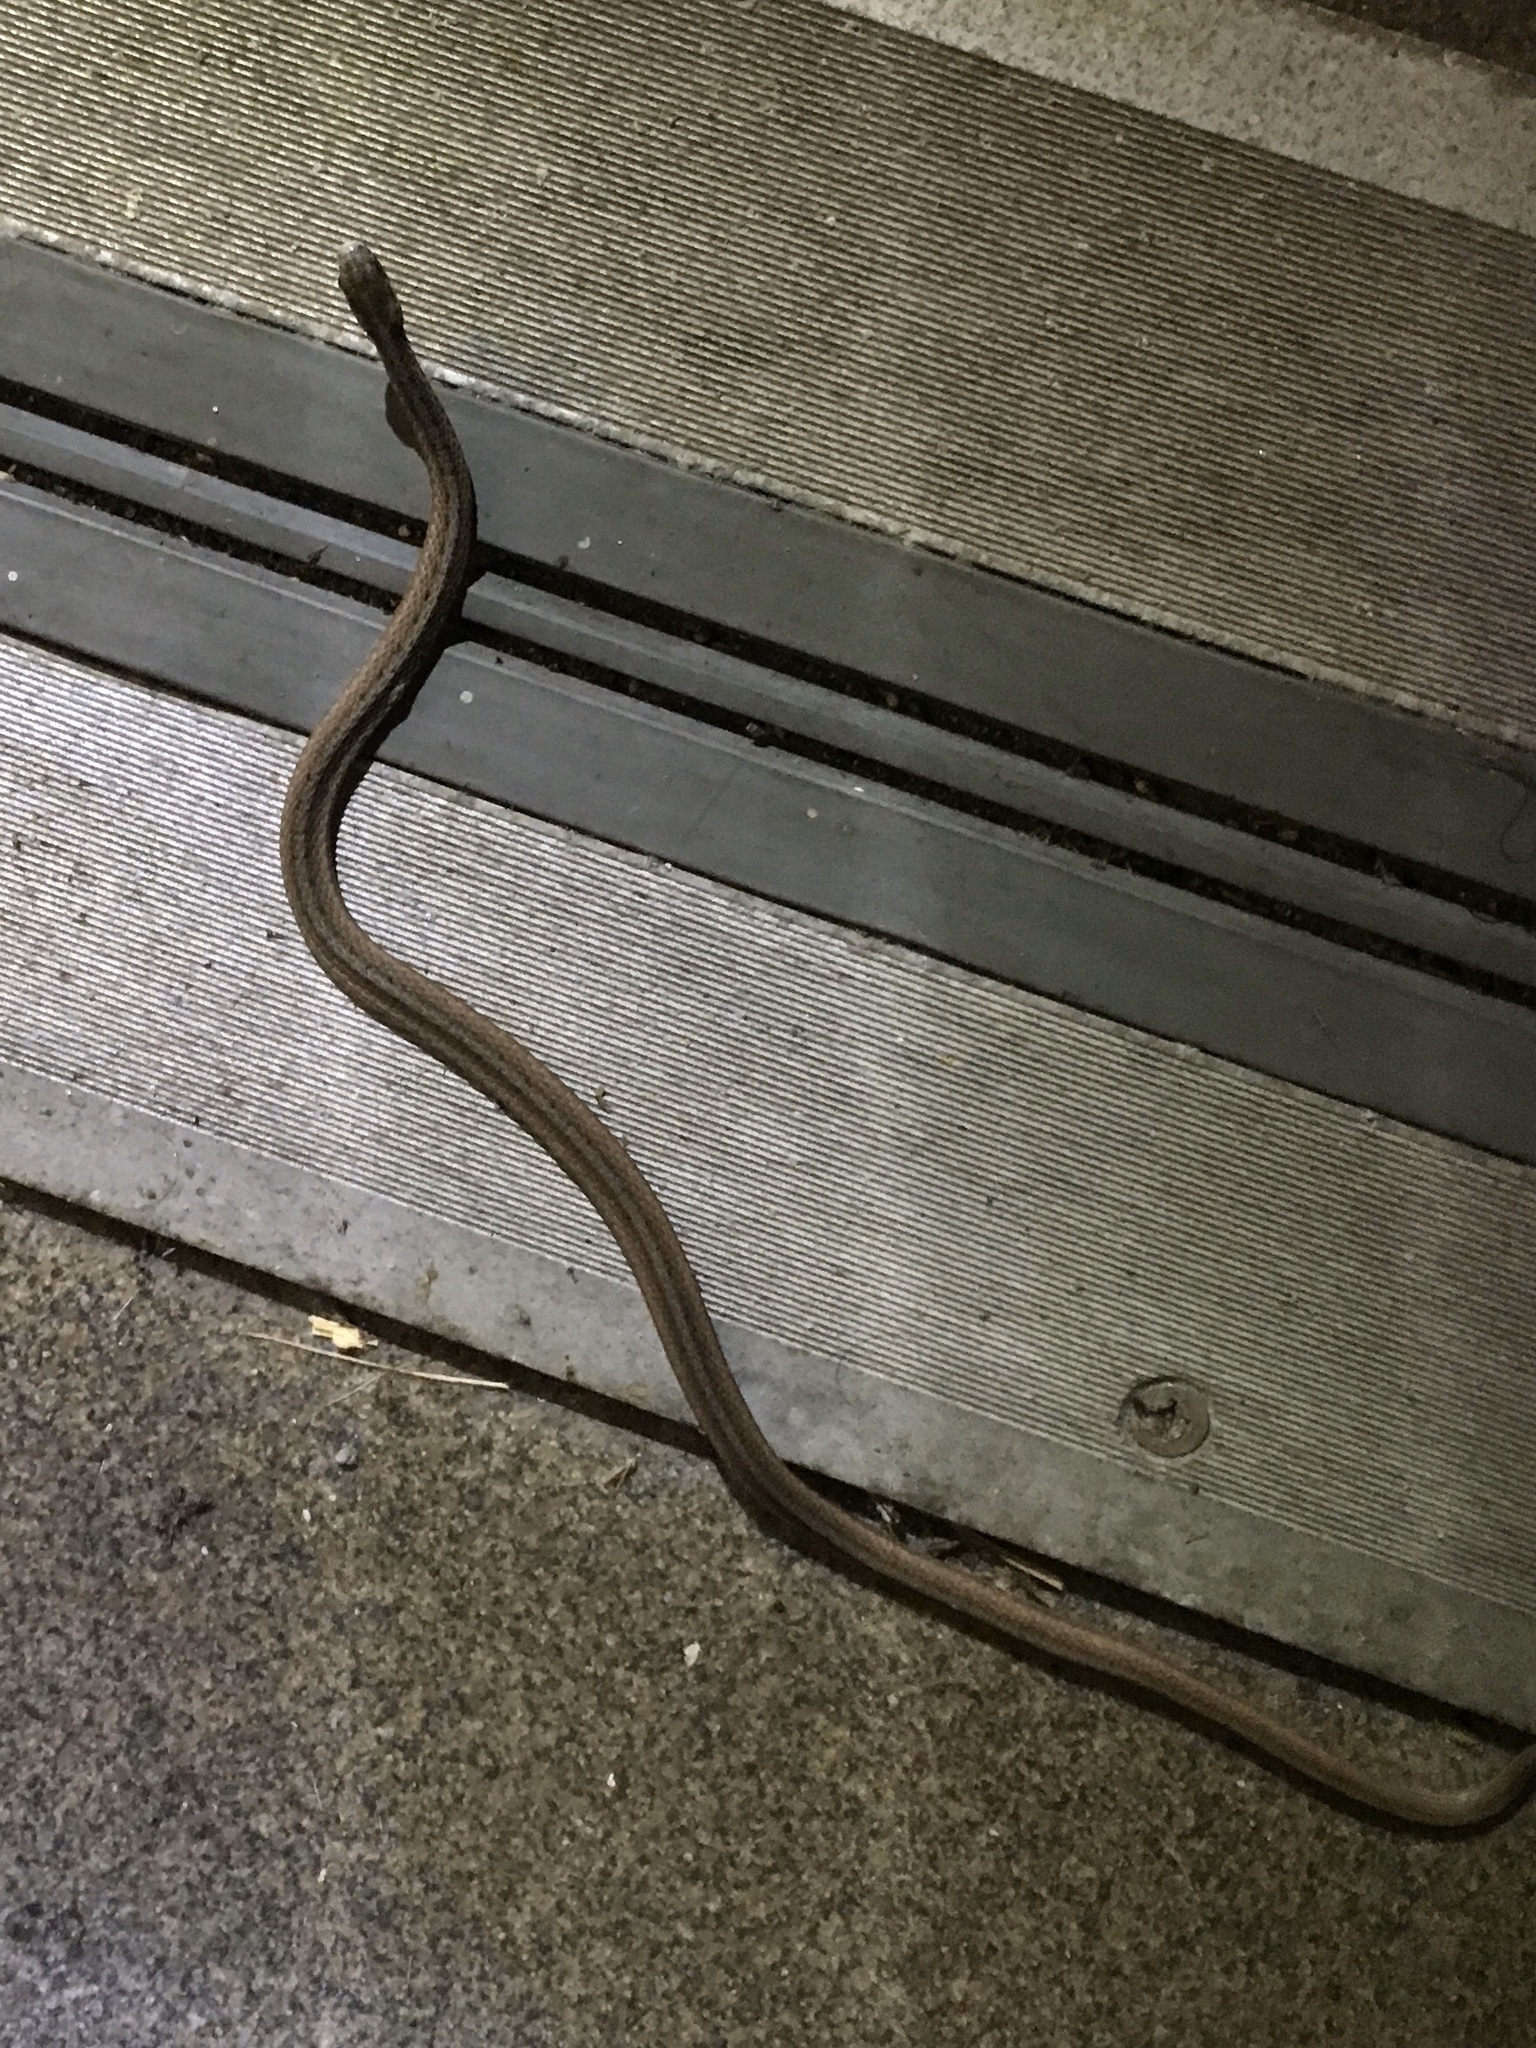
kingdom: Animalia
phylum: Chordata
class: Squamata
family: Colubridae
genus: Storeria
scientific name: Storeria victa
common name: Florida brown snake
